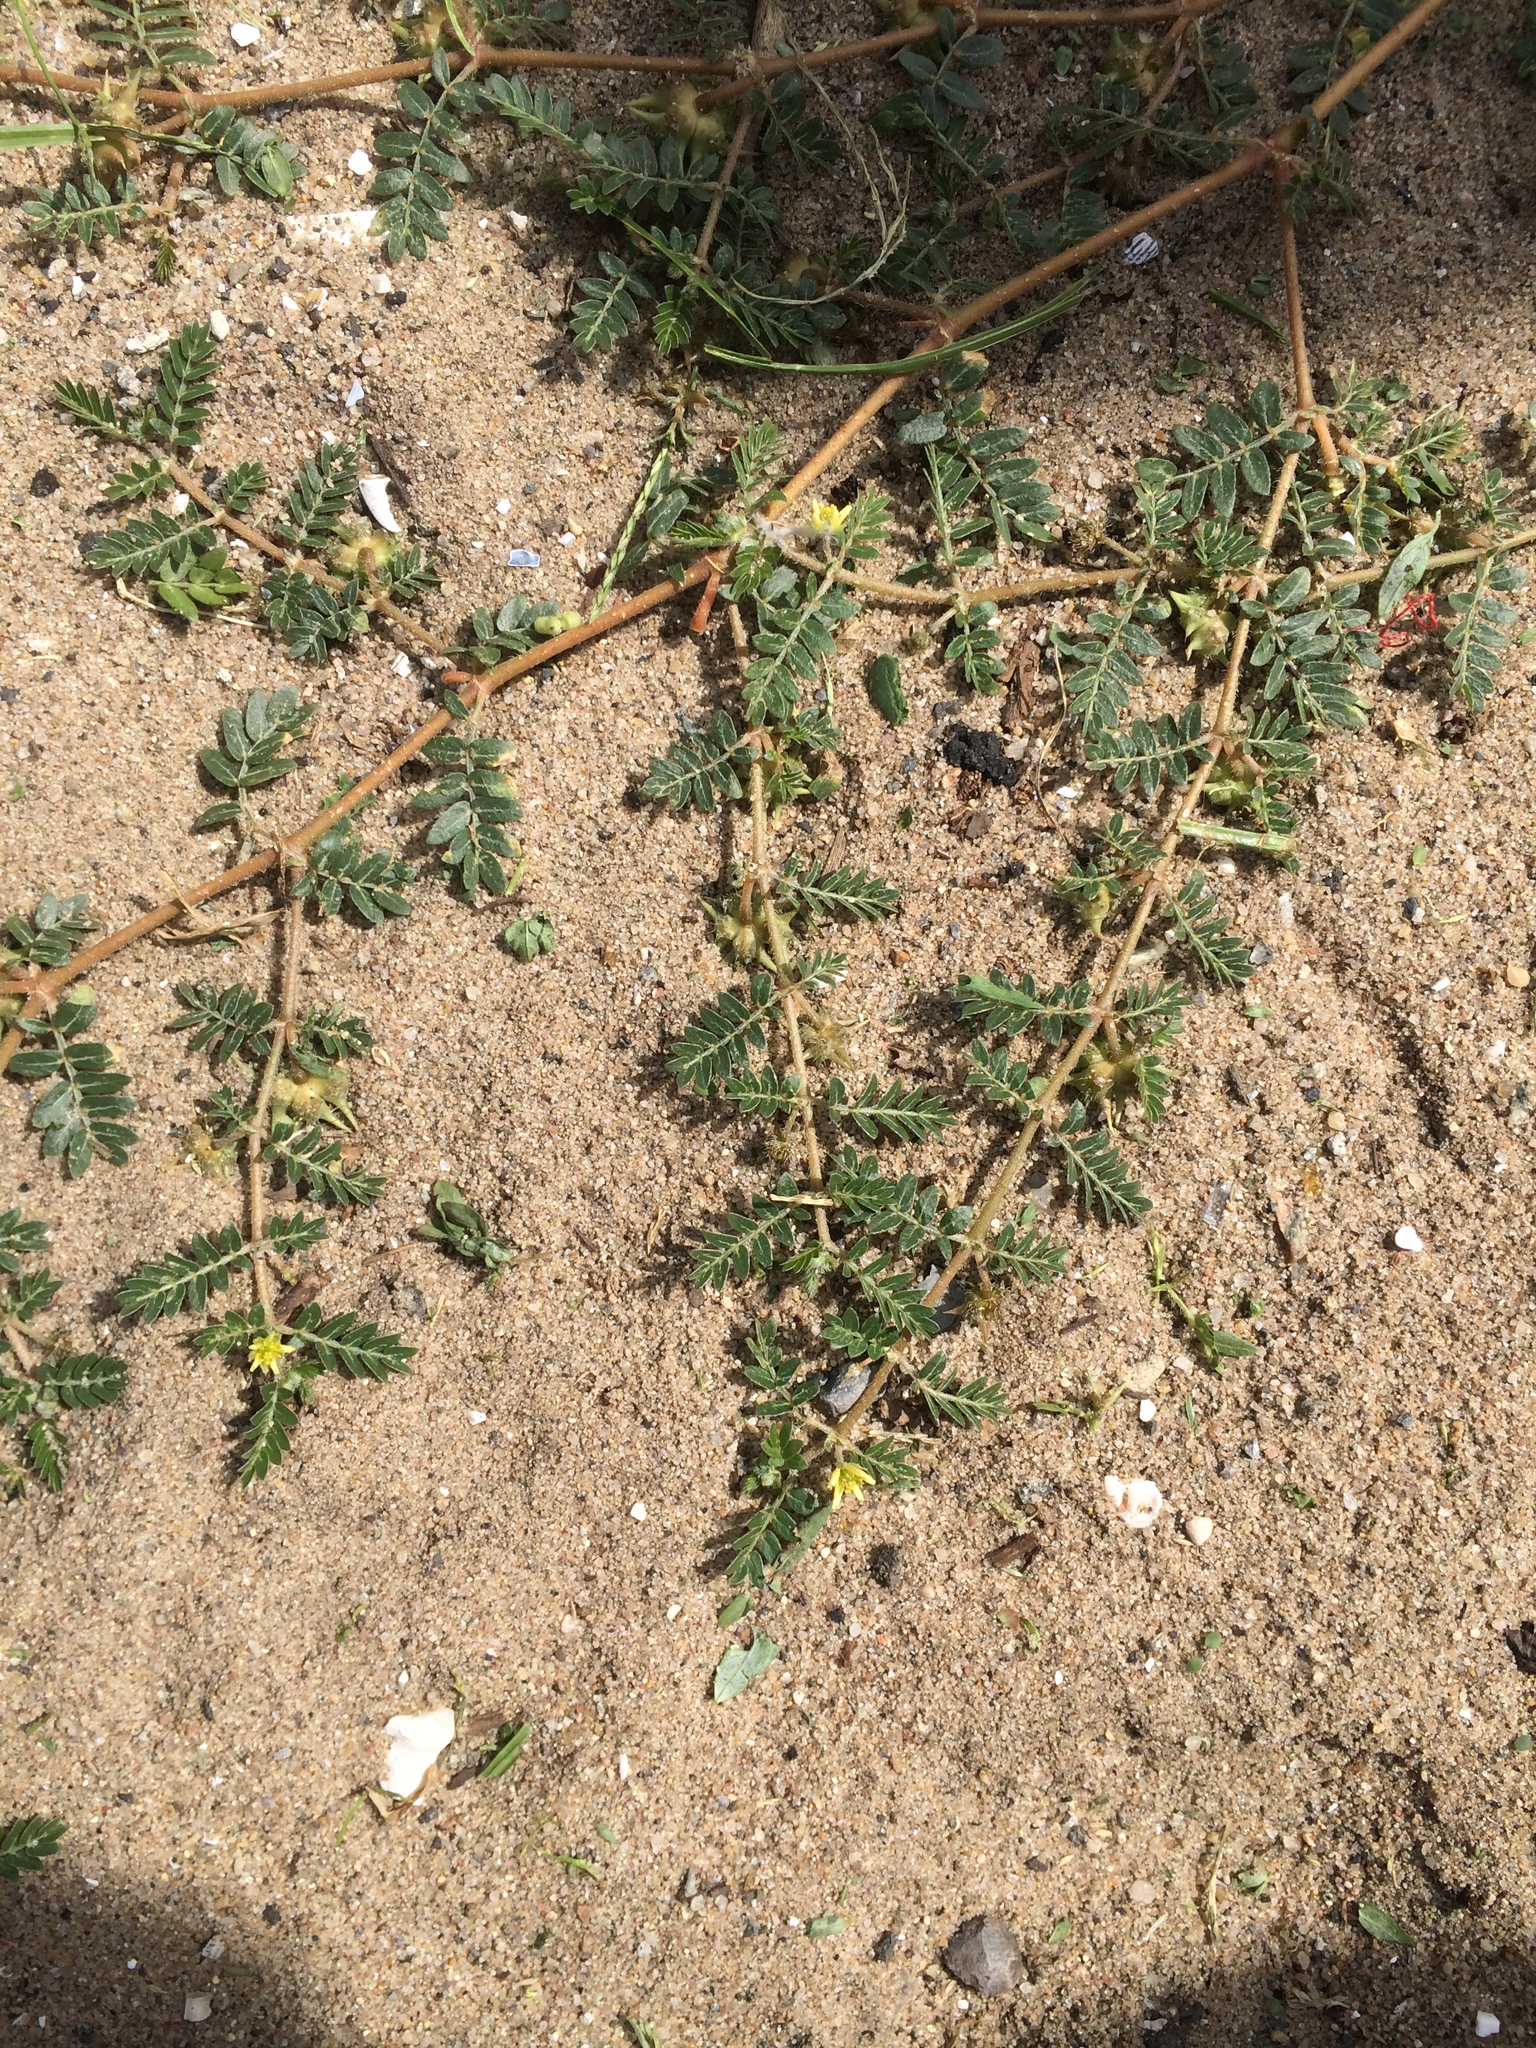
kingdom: Plantae
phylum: Tracheophyta
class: Magnoliopsida
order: Zygophyllales
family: Zygophyllaceae
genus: Tribulus
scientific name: Tribulus terrestris
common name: Puncturevine
